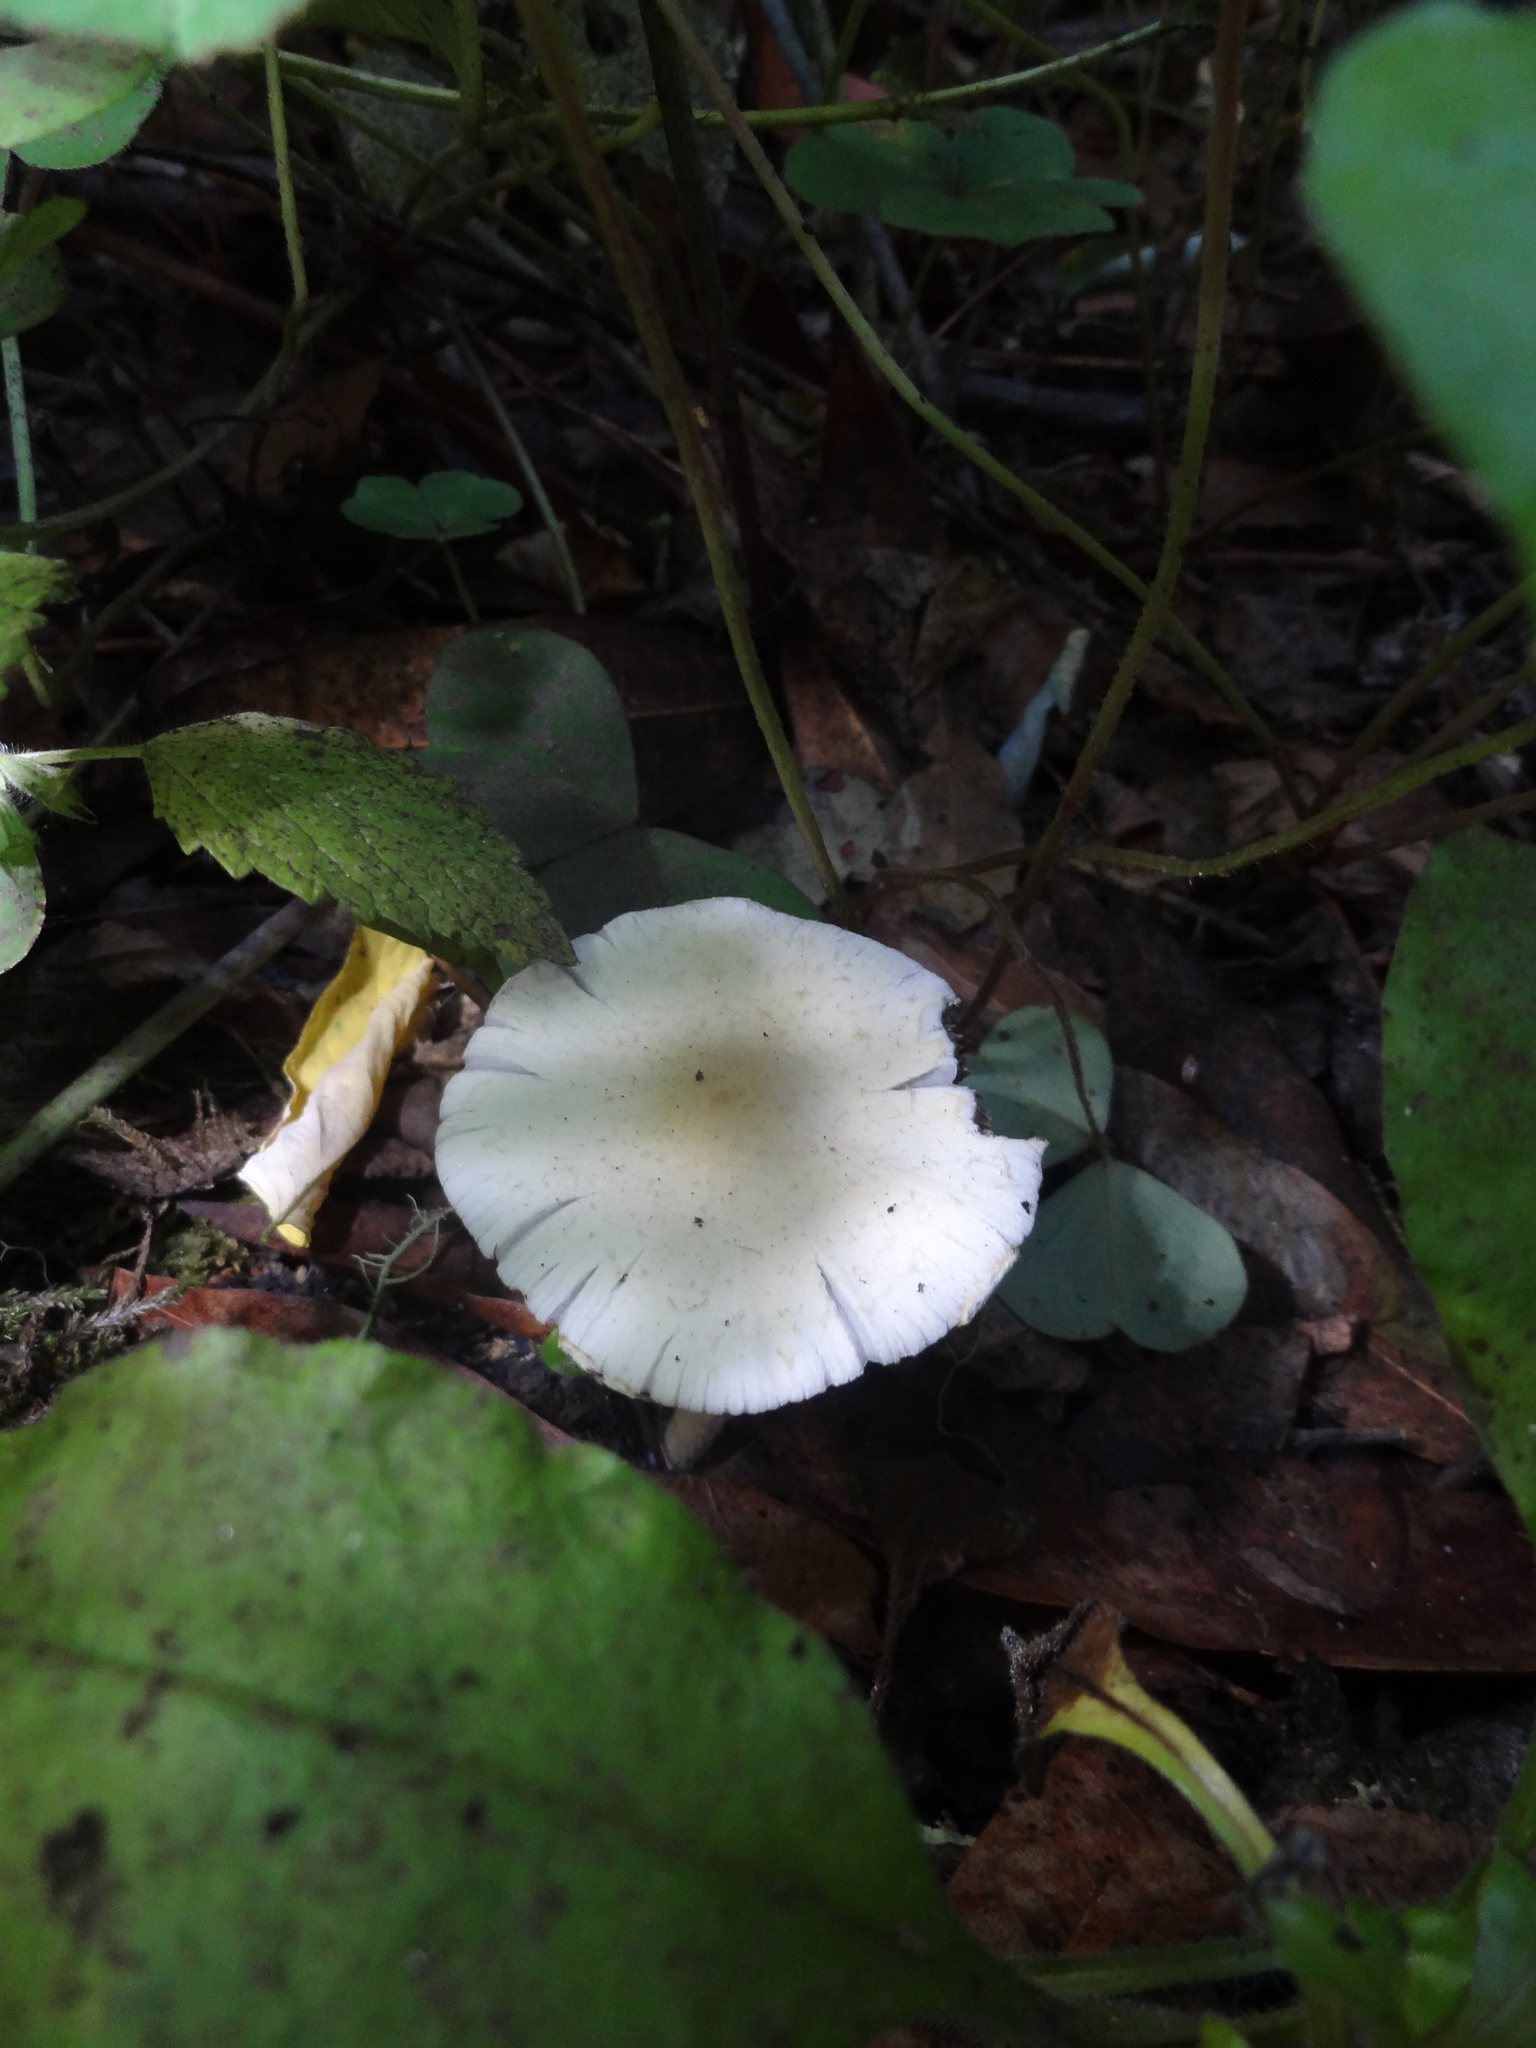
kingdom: Fungi
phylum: Basidiomycota
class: Agaricomycetes
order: Agaricales
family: Psathyrellaceae
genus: Candolleomyces
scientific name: Candolleomyces candolleanus
